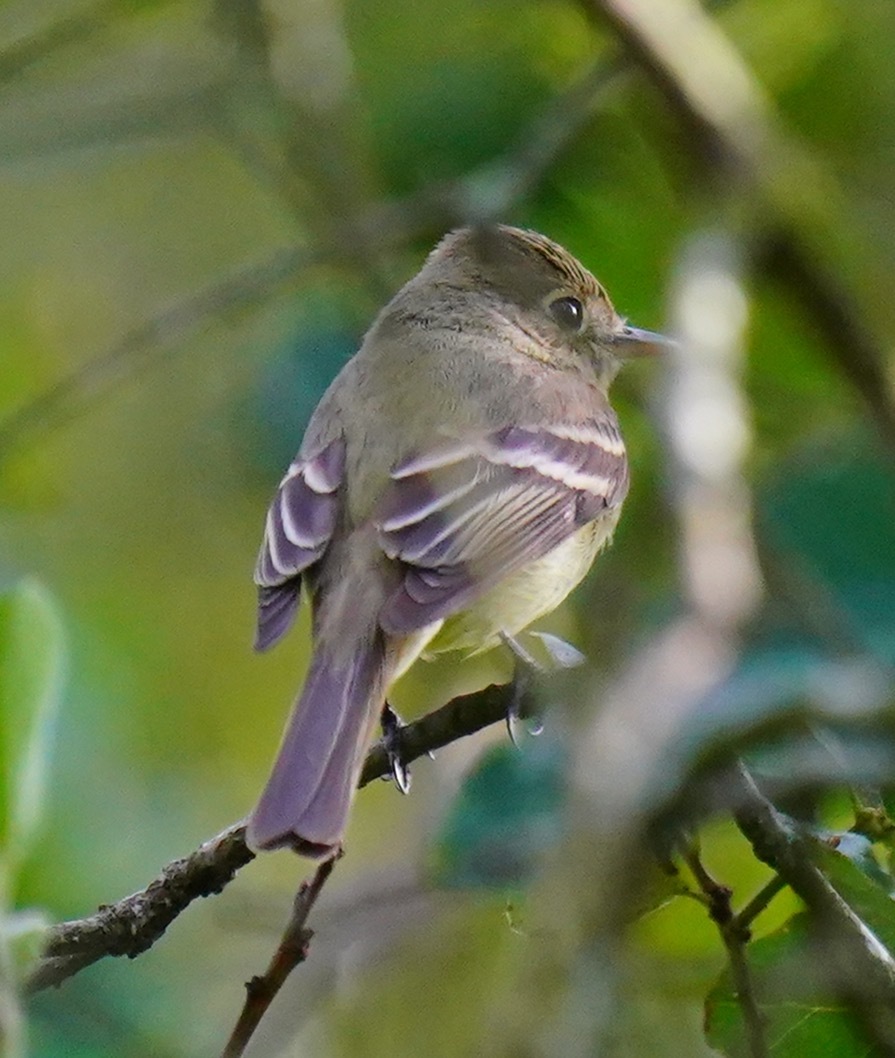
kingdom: Animalia
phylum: Chordata
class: Aves
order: Passeriformes
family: Tyrannidae
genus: Empidonax
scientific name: Empidonax difficilis
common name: Pacific-slope flycatcher
